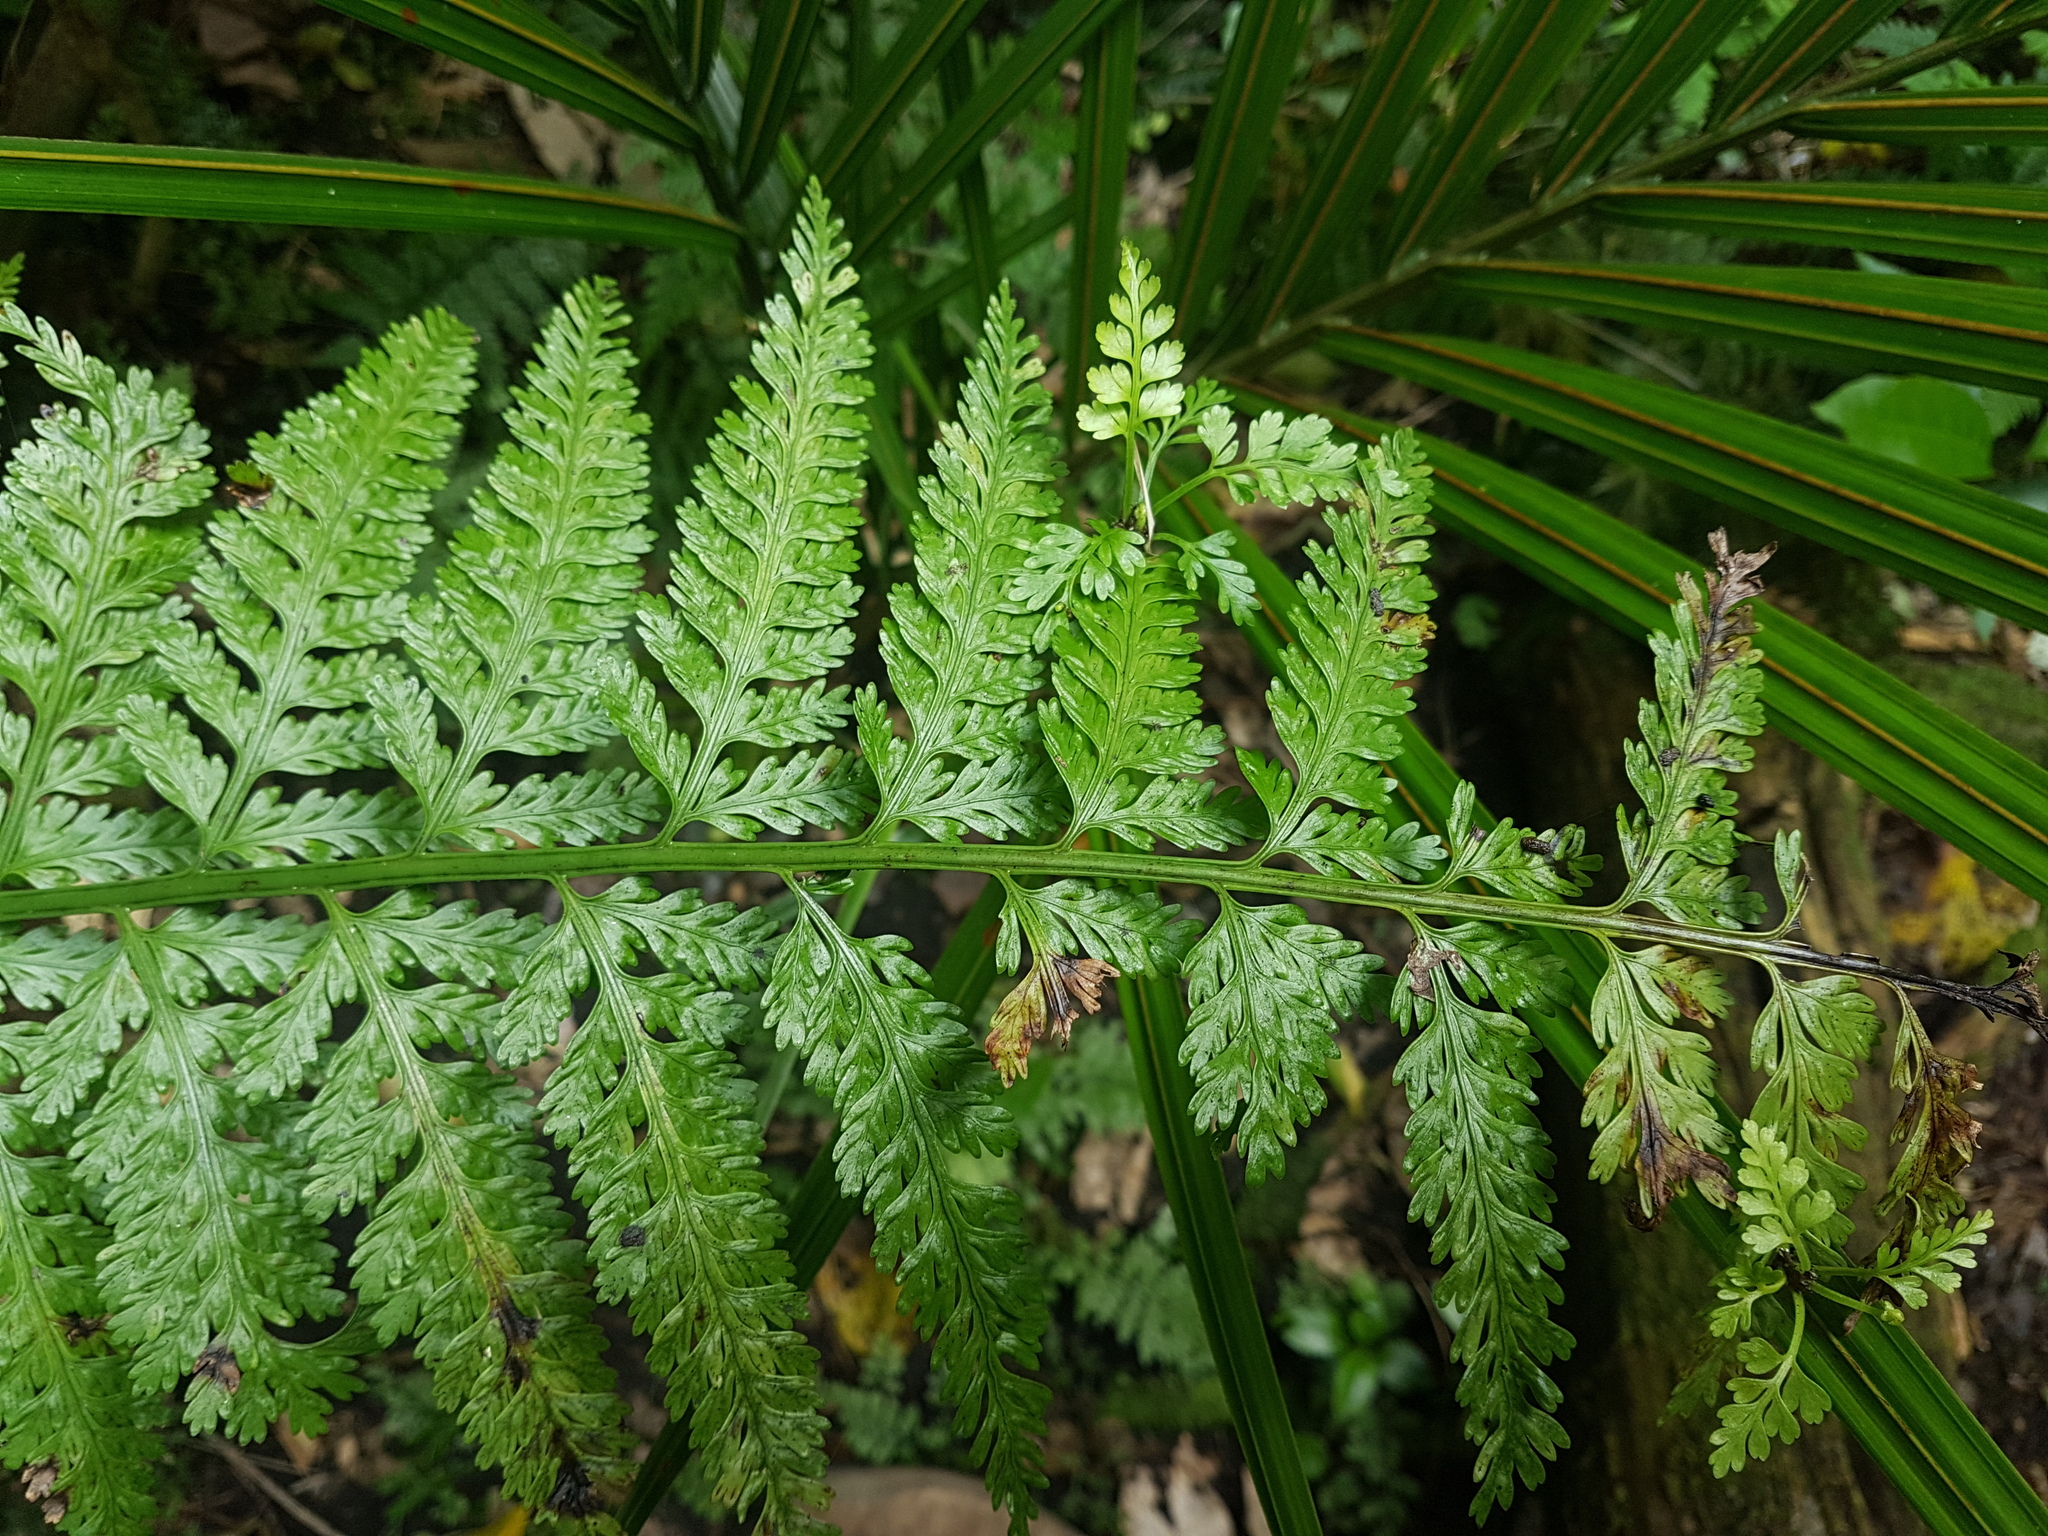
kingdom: Plantae
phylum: Tracheophyta
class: Polypodiopsida
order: Polypodiales
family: Aspleniaceae
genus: Asplenium
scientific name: Asplenium bulbiferum
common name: Mother fern
